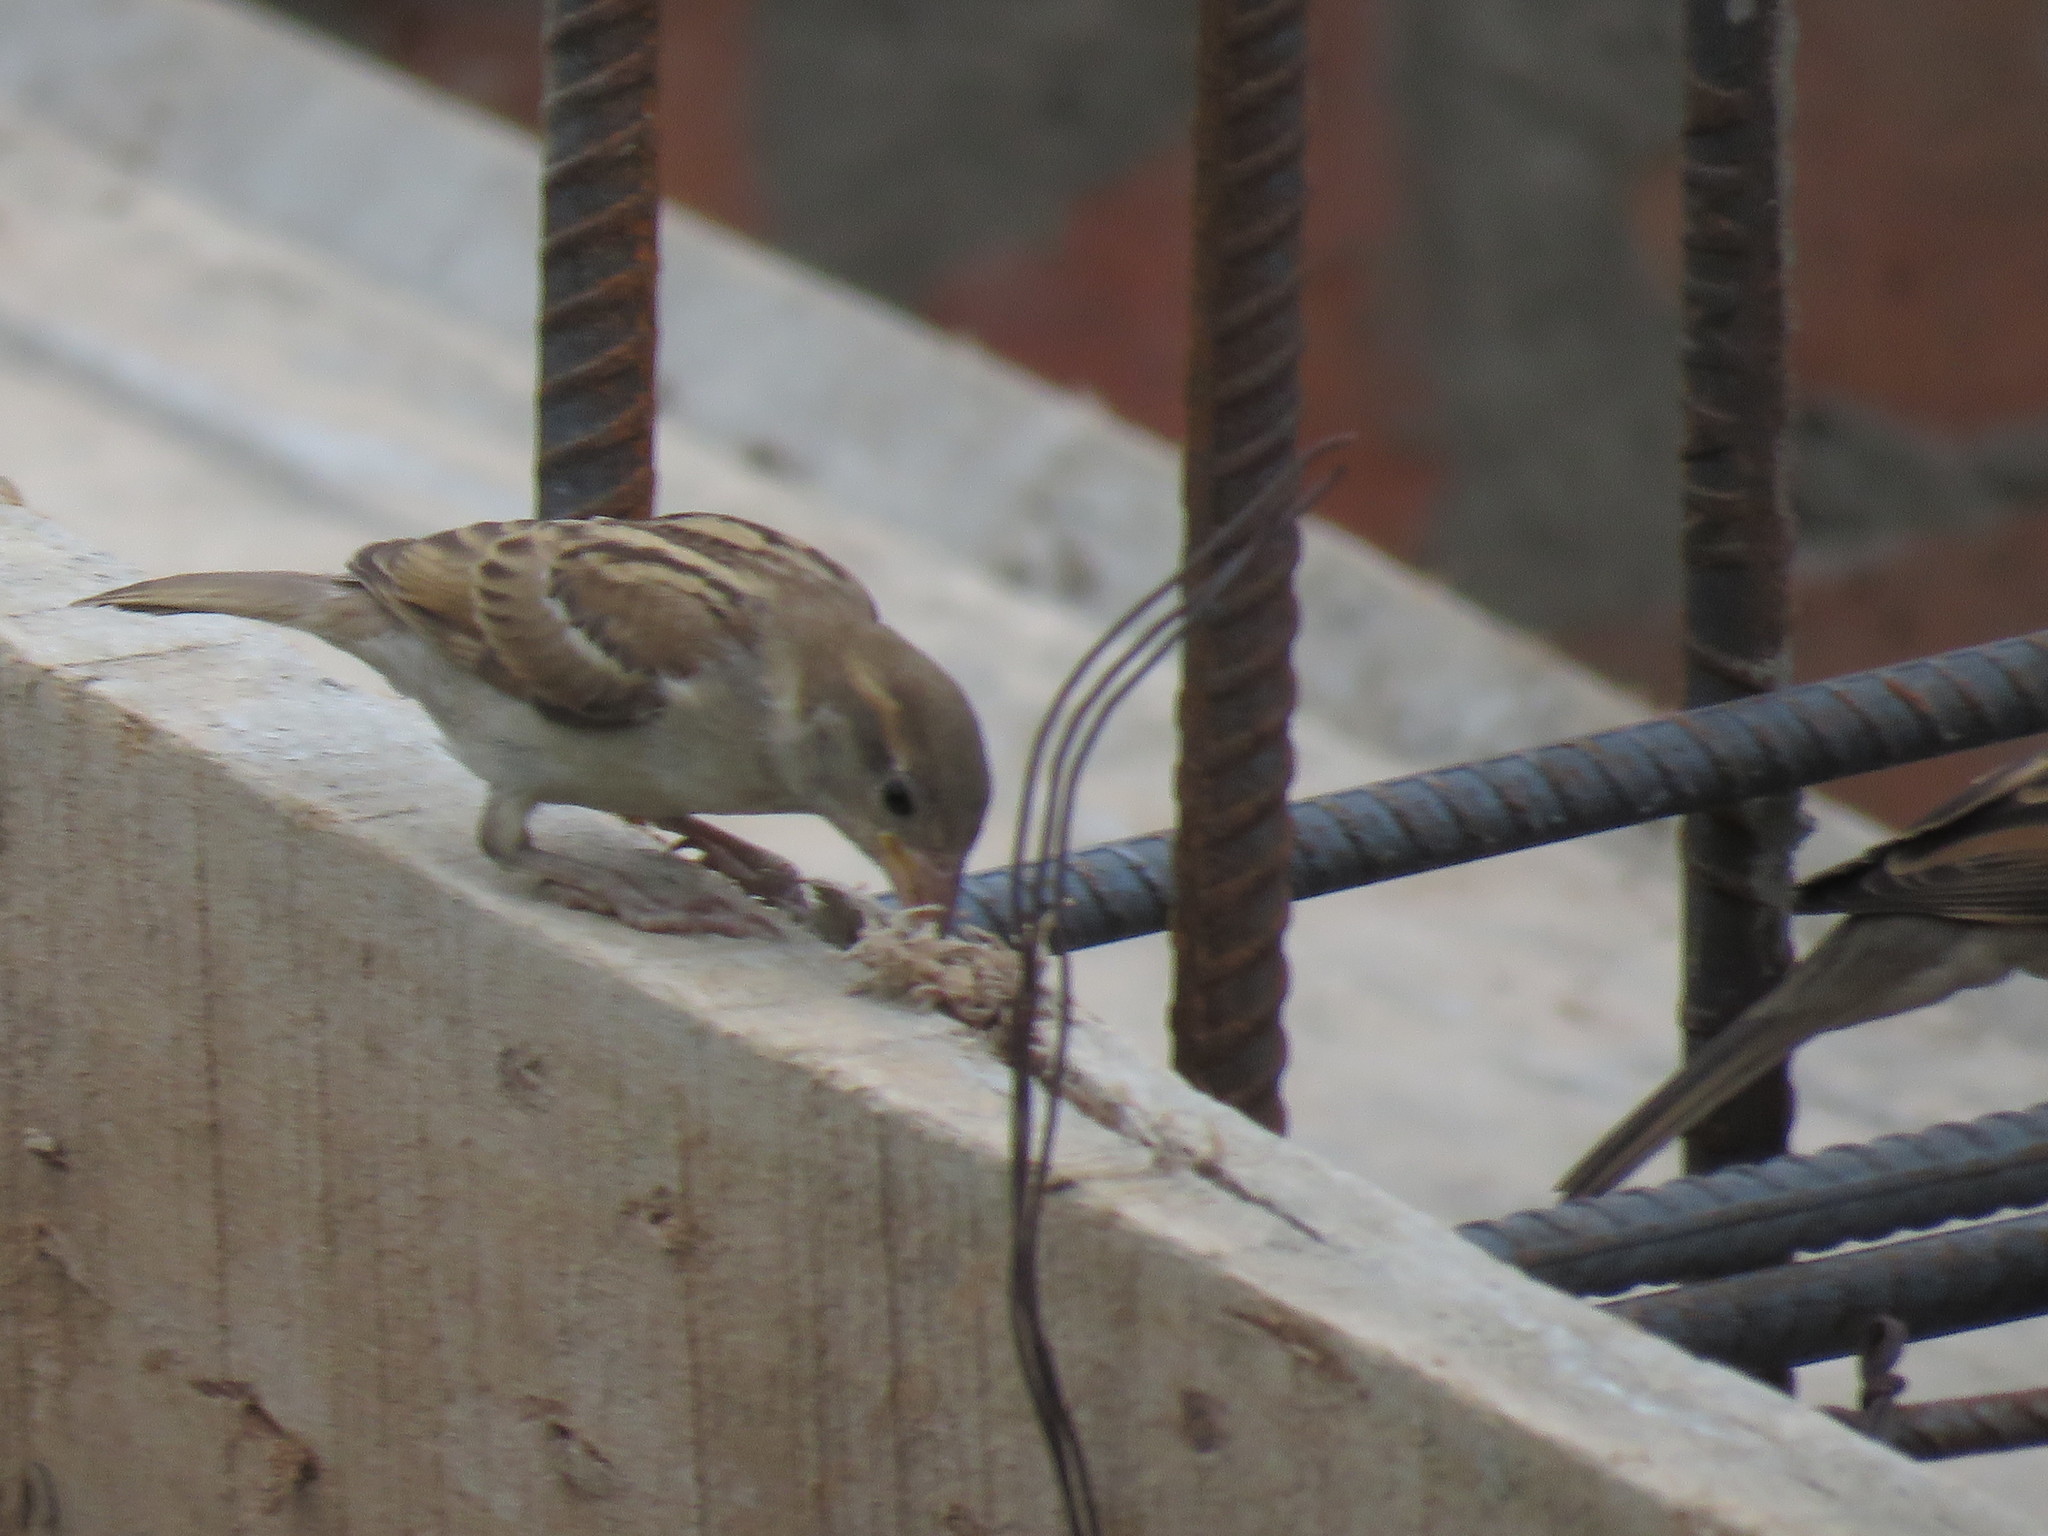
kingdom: Animalia
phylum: Chordata
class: Aves
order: Passeriformes
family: Passeridae
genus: Passer
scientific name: Passer domesticus
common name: House sparrow
